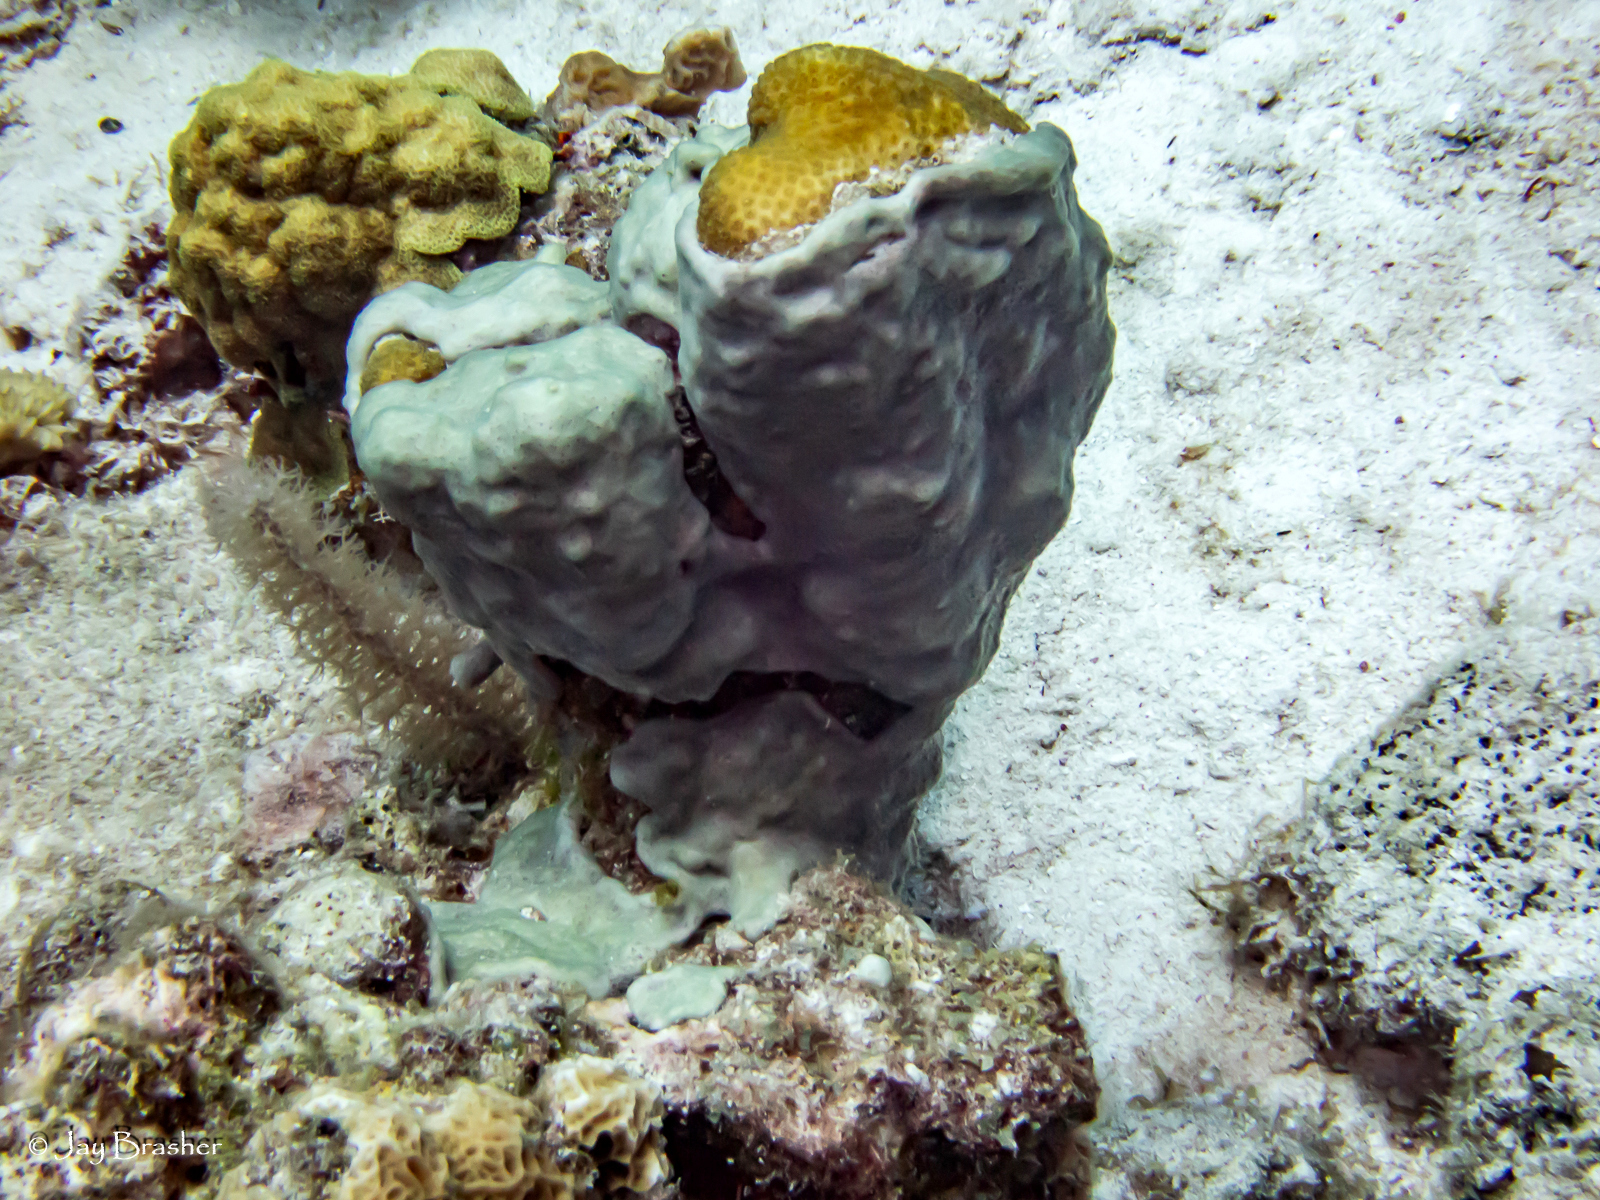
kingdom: Animalia
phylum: Cnidaria
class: Anthozoa
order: Scleractinia
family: Poritidae
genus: Porites
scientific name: Porites astreoides
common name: Mustard hill coral
